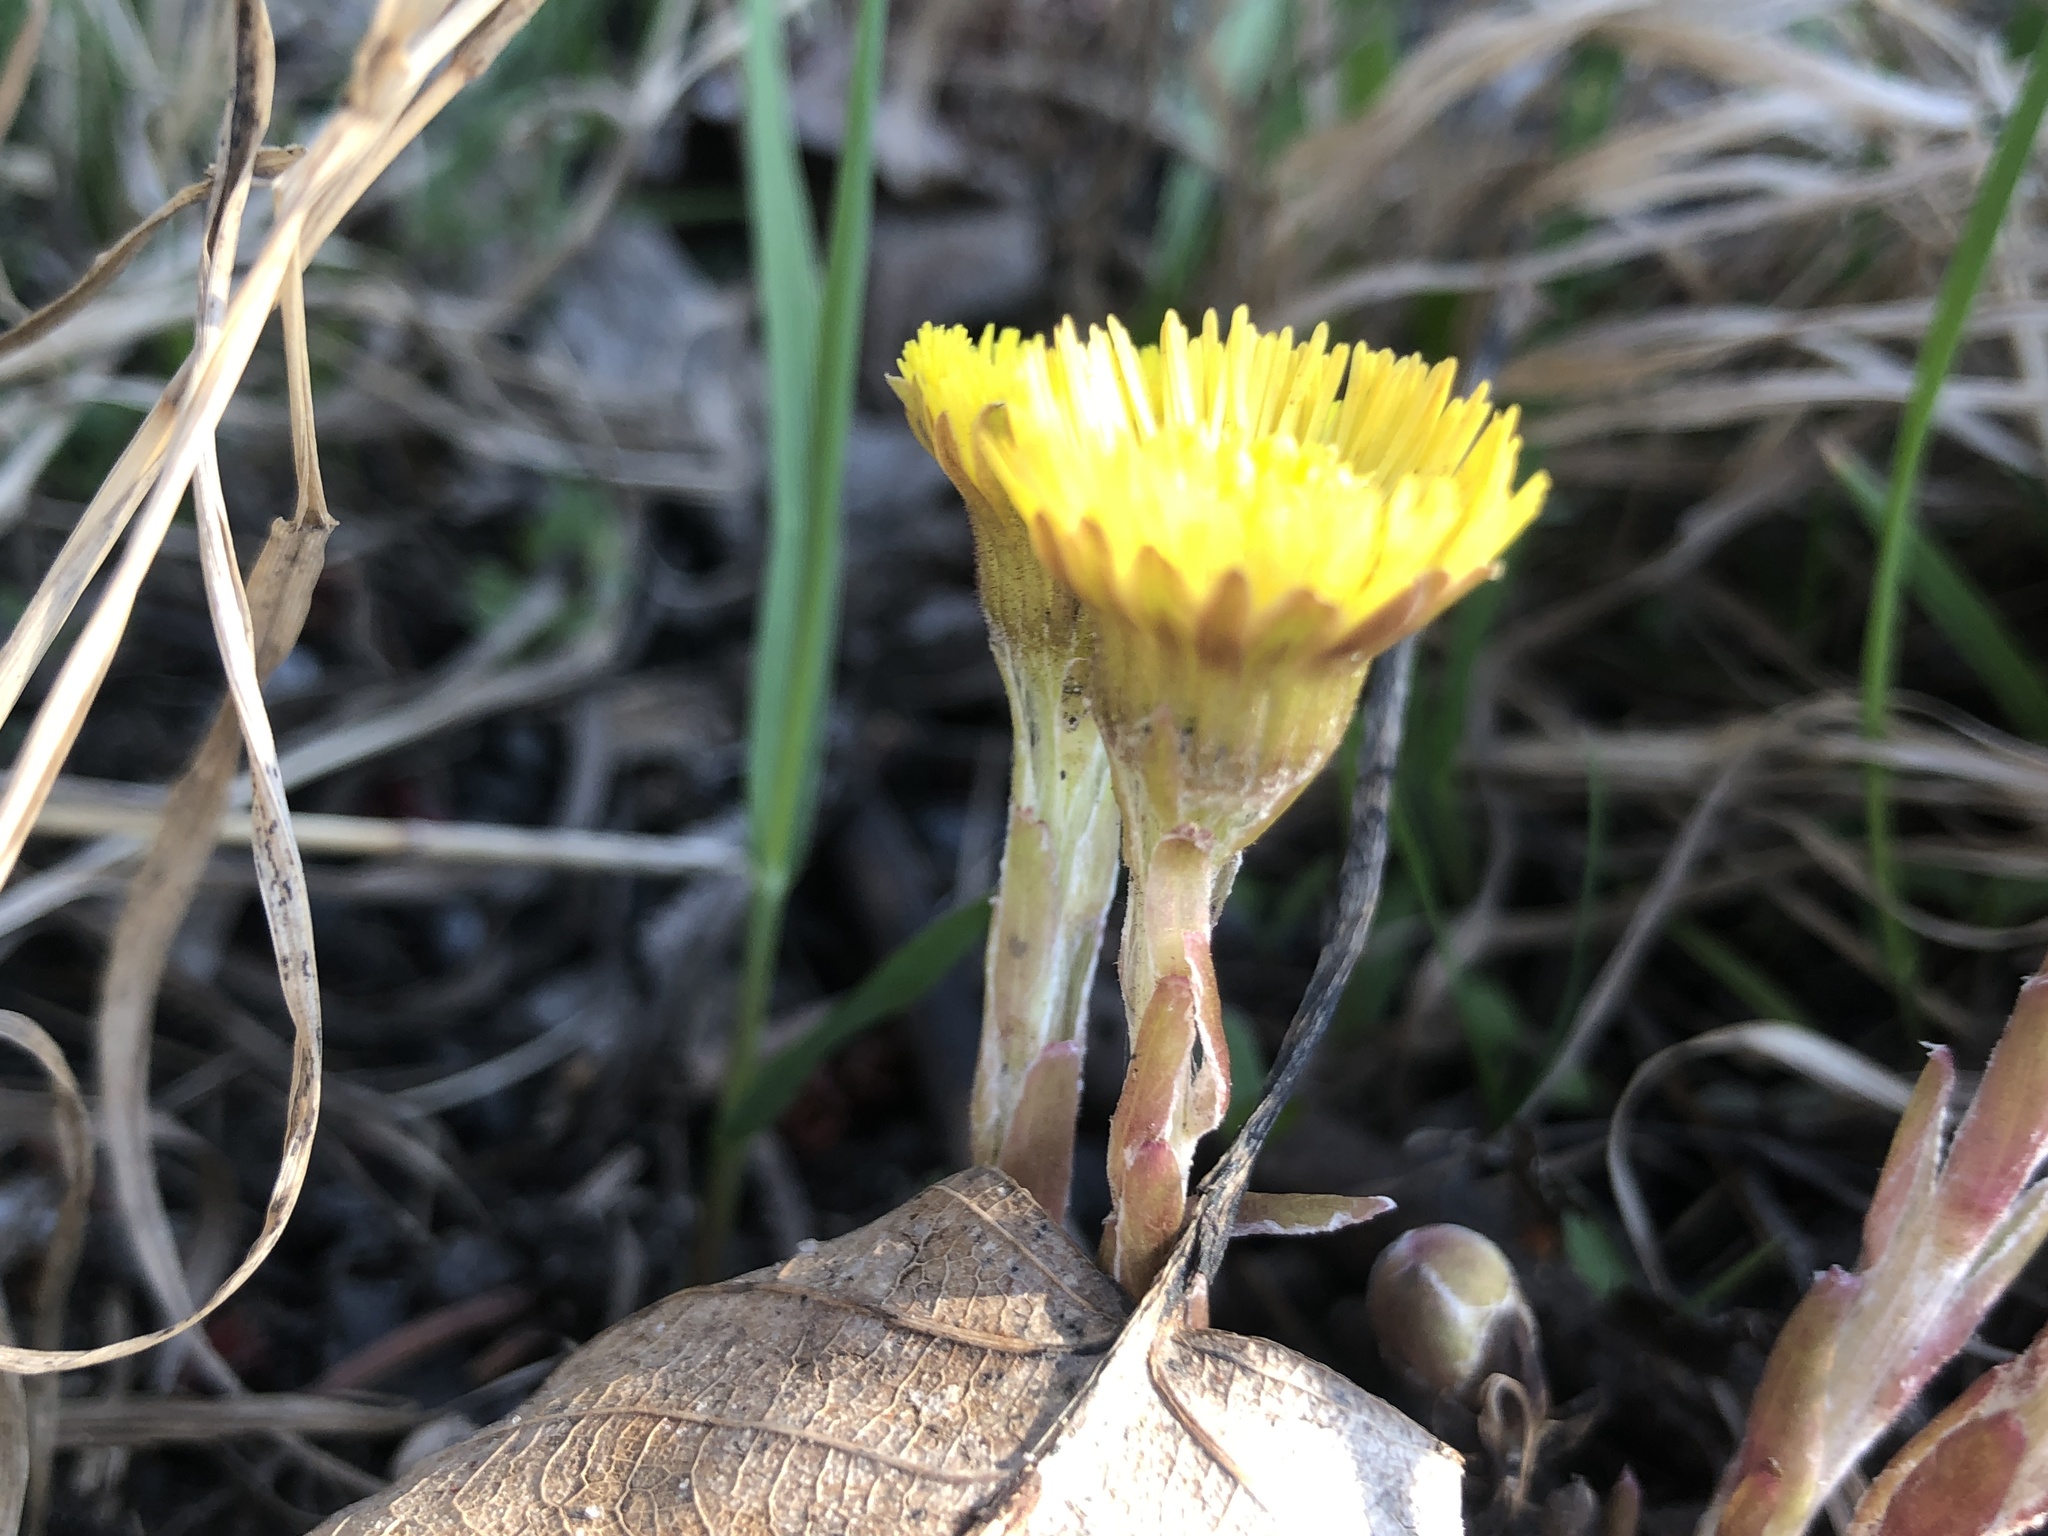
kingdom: Plantae
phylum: Tracheophyta
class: Magnoliopsida
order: Asterales
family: Asteraceae
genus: Tussilago
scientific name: Tussilago farfara
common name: Coltsfoot
